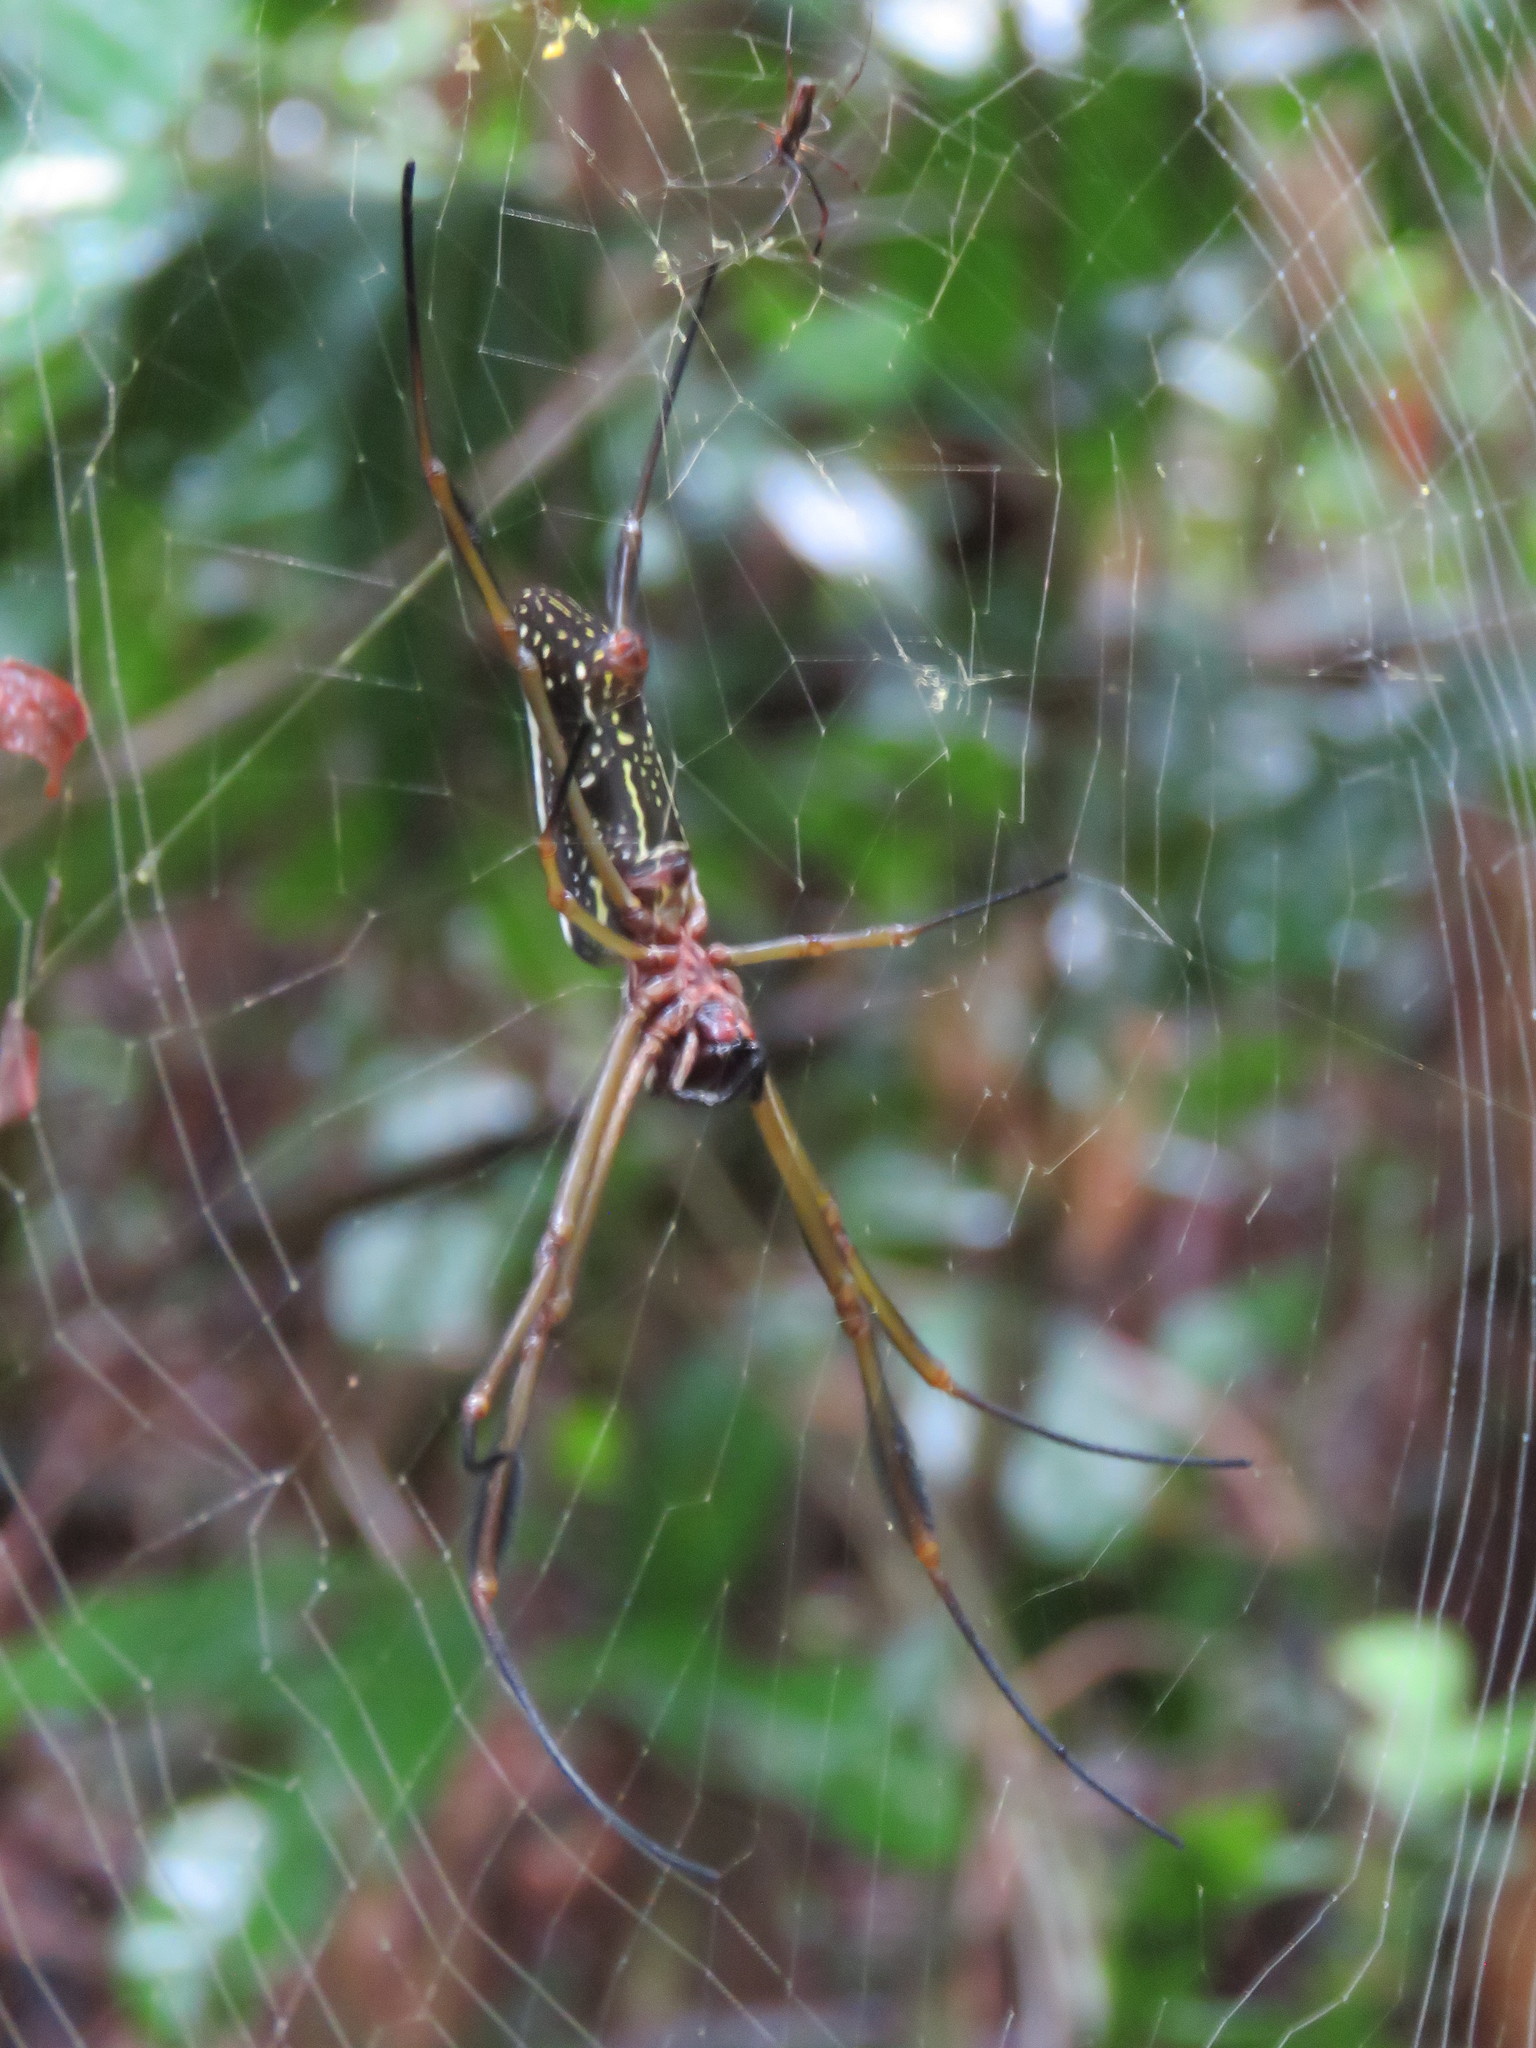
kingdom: Animalia
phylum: Arthropoda
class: Arachnida
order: Araneae
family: Araneidae
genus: Trichonephila
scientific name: Trichonephila clavipes
